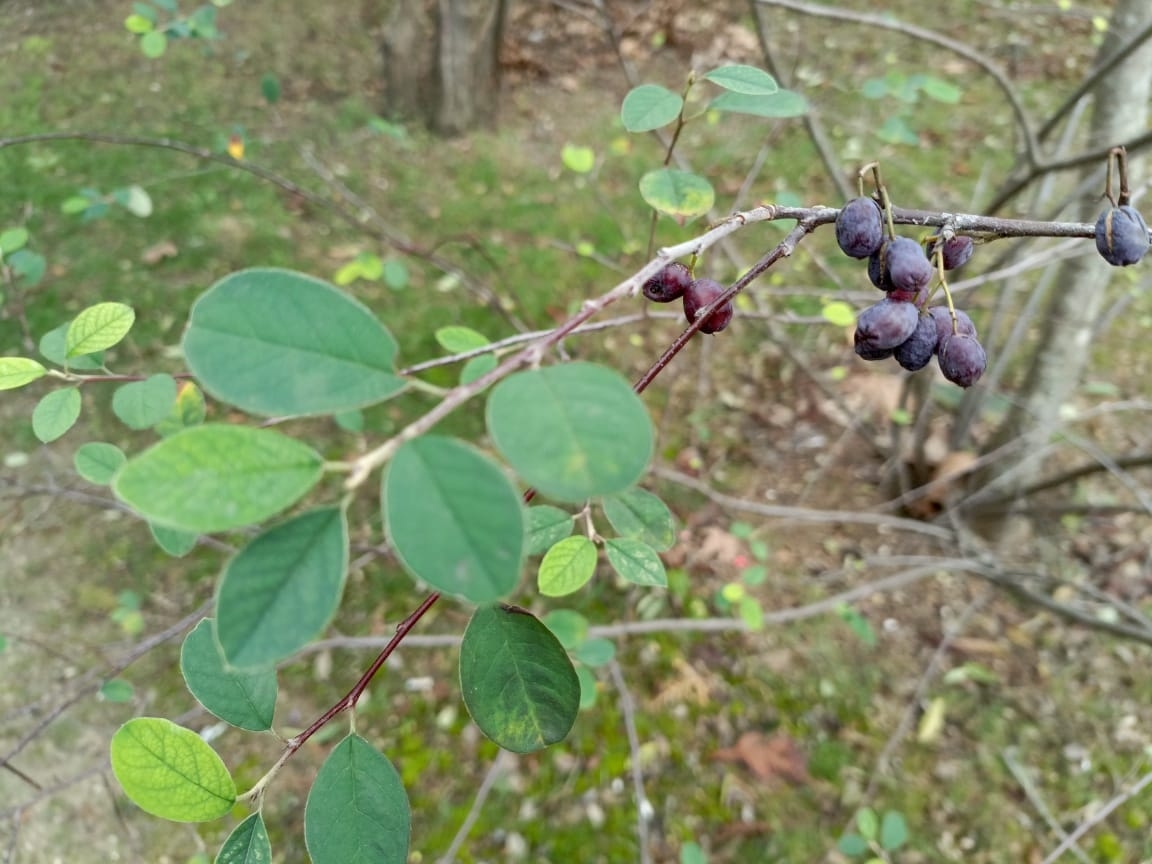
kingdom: Plantae
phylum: Tracheophyta
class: Magnoliopsida
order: Rosales
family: Rosaceae
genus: Cotoneaster
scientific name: Cotoneaster melanocarpus
